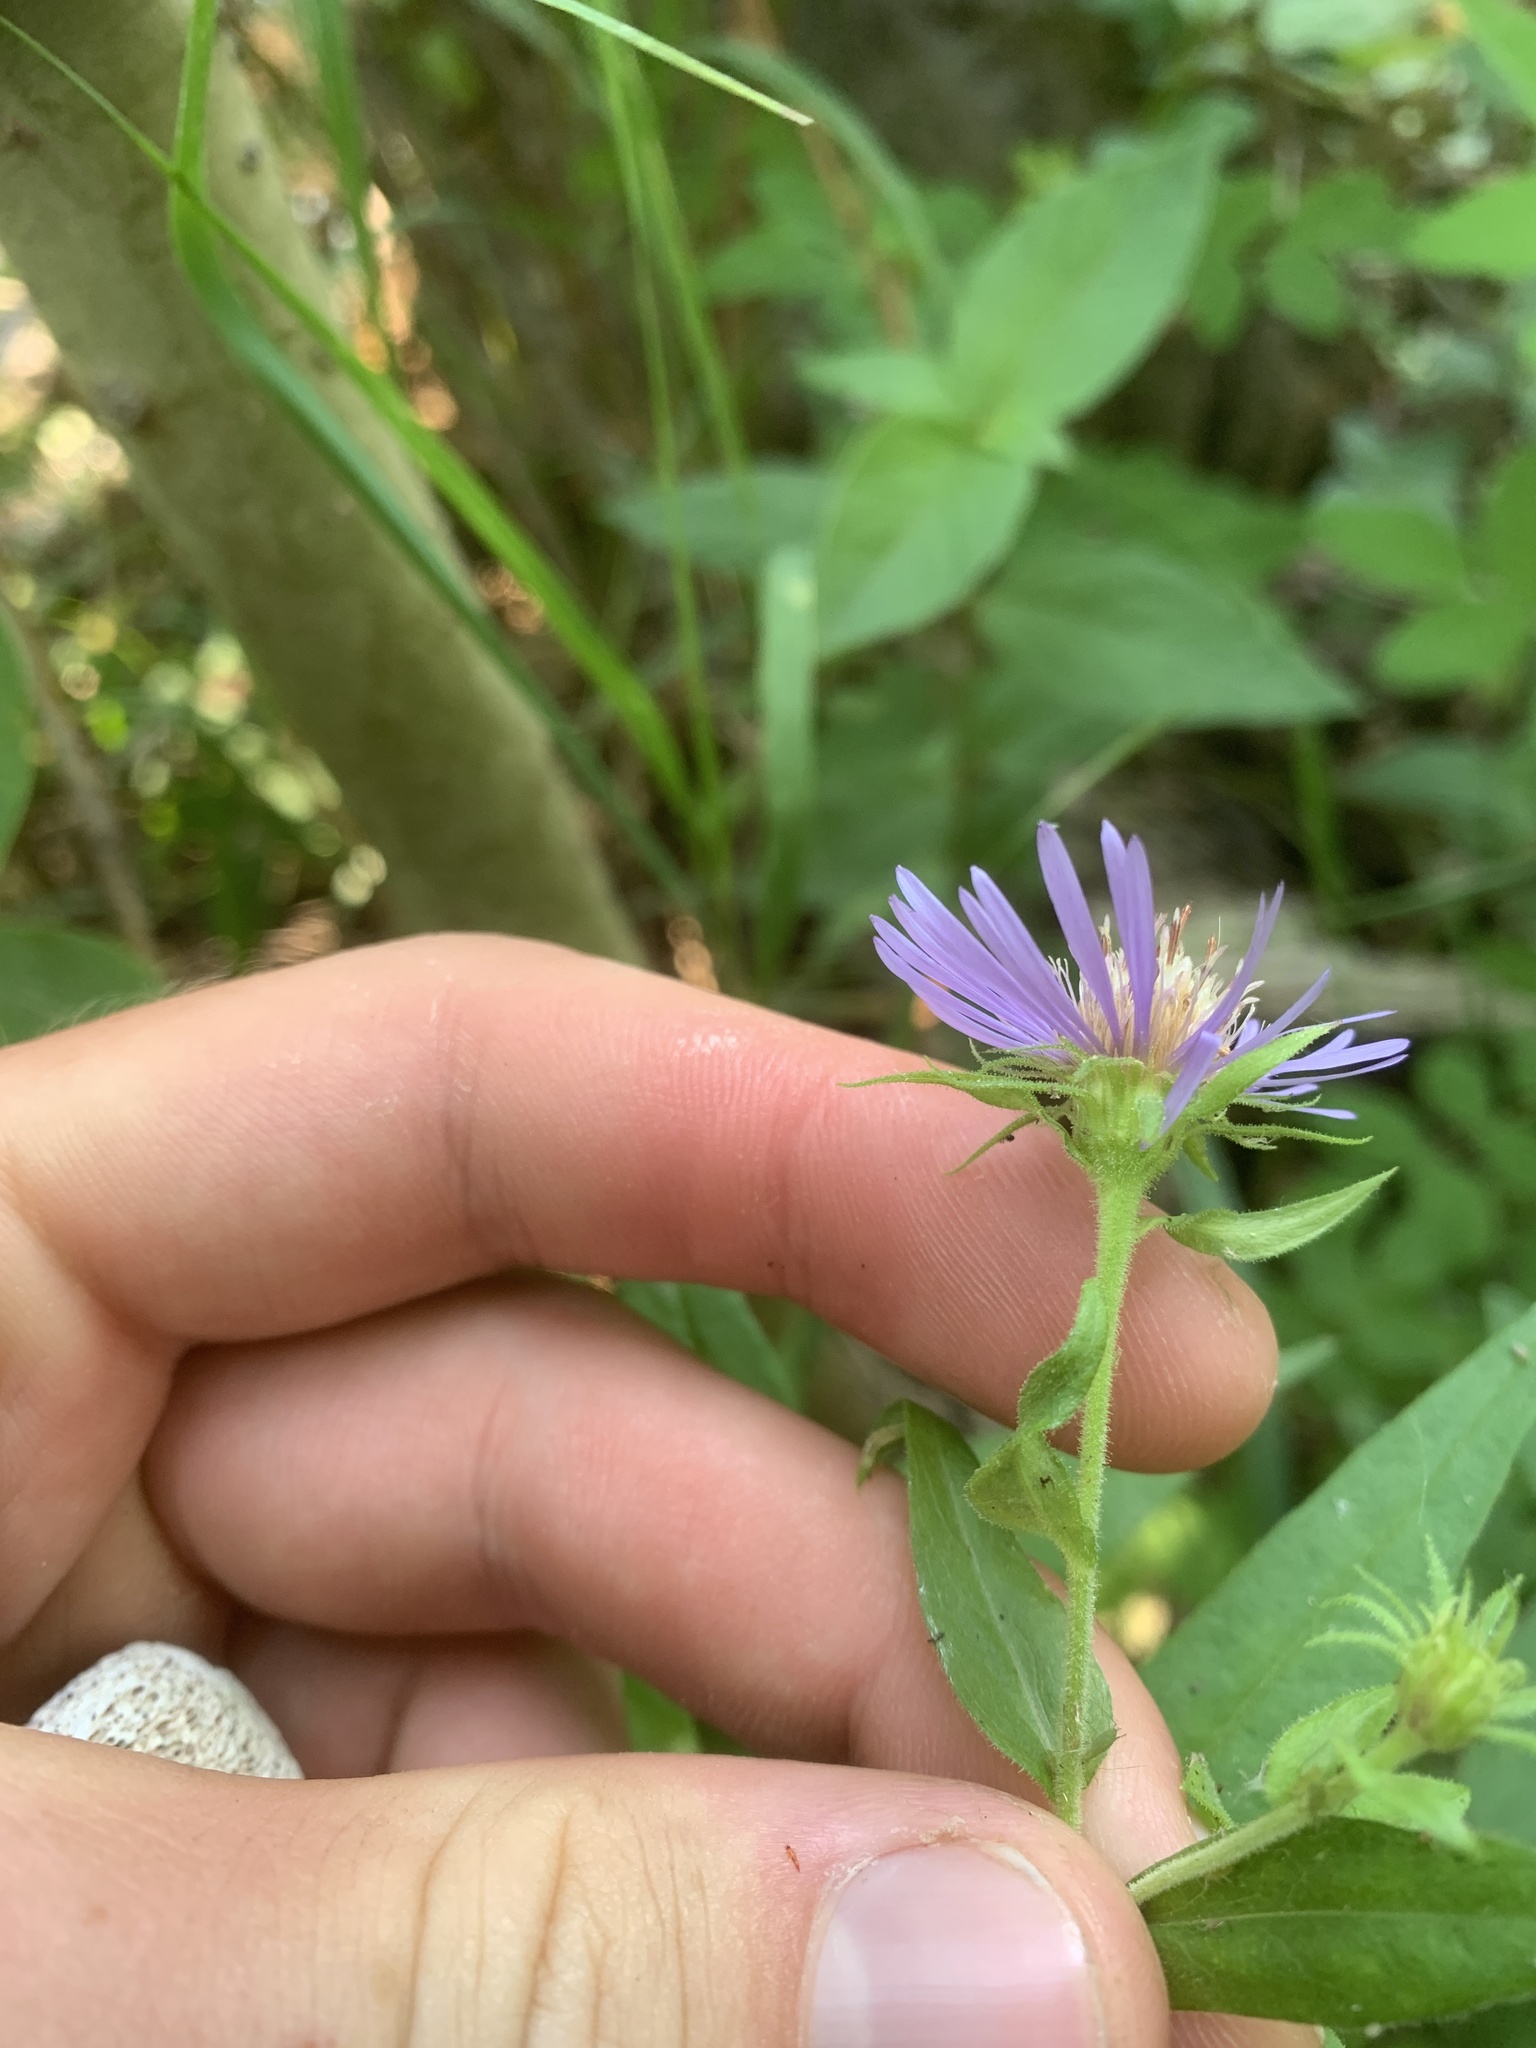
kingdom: Plantae
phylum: Tracheophyta
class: Magnoliopsida
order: Asterales
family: Asteraceae
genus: Canadanthus
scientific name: Canadanthus modestus
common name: Great northern aster
